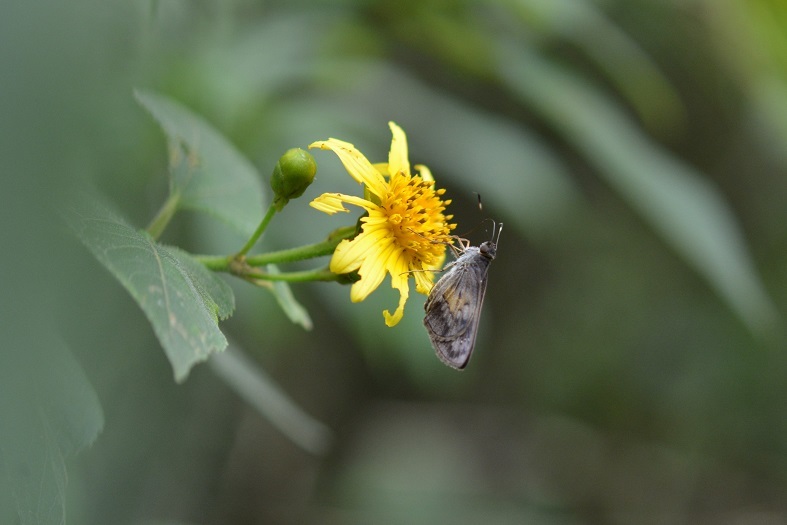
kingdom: Animalia
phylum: Arthropoda
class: Insecta
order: Lepidoptera
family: Hesperiidae
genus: Phanis
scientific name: Phanis aletes
